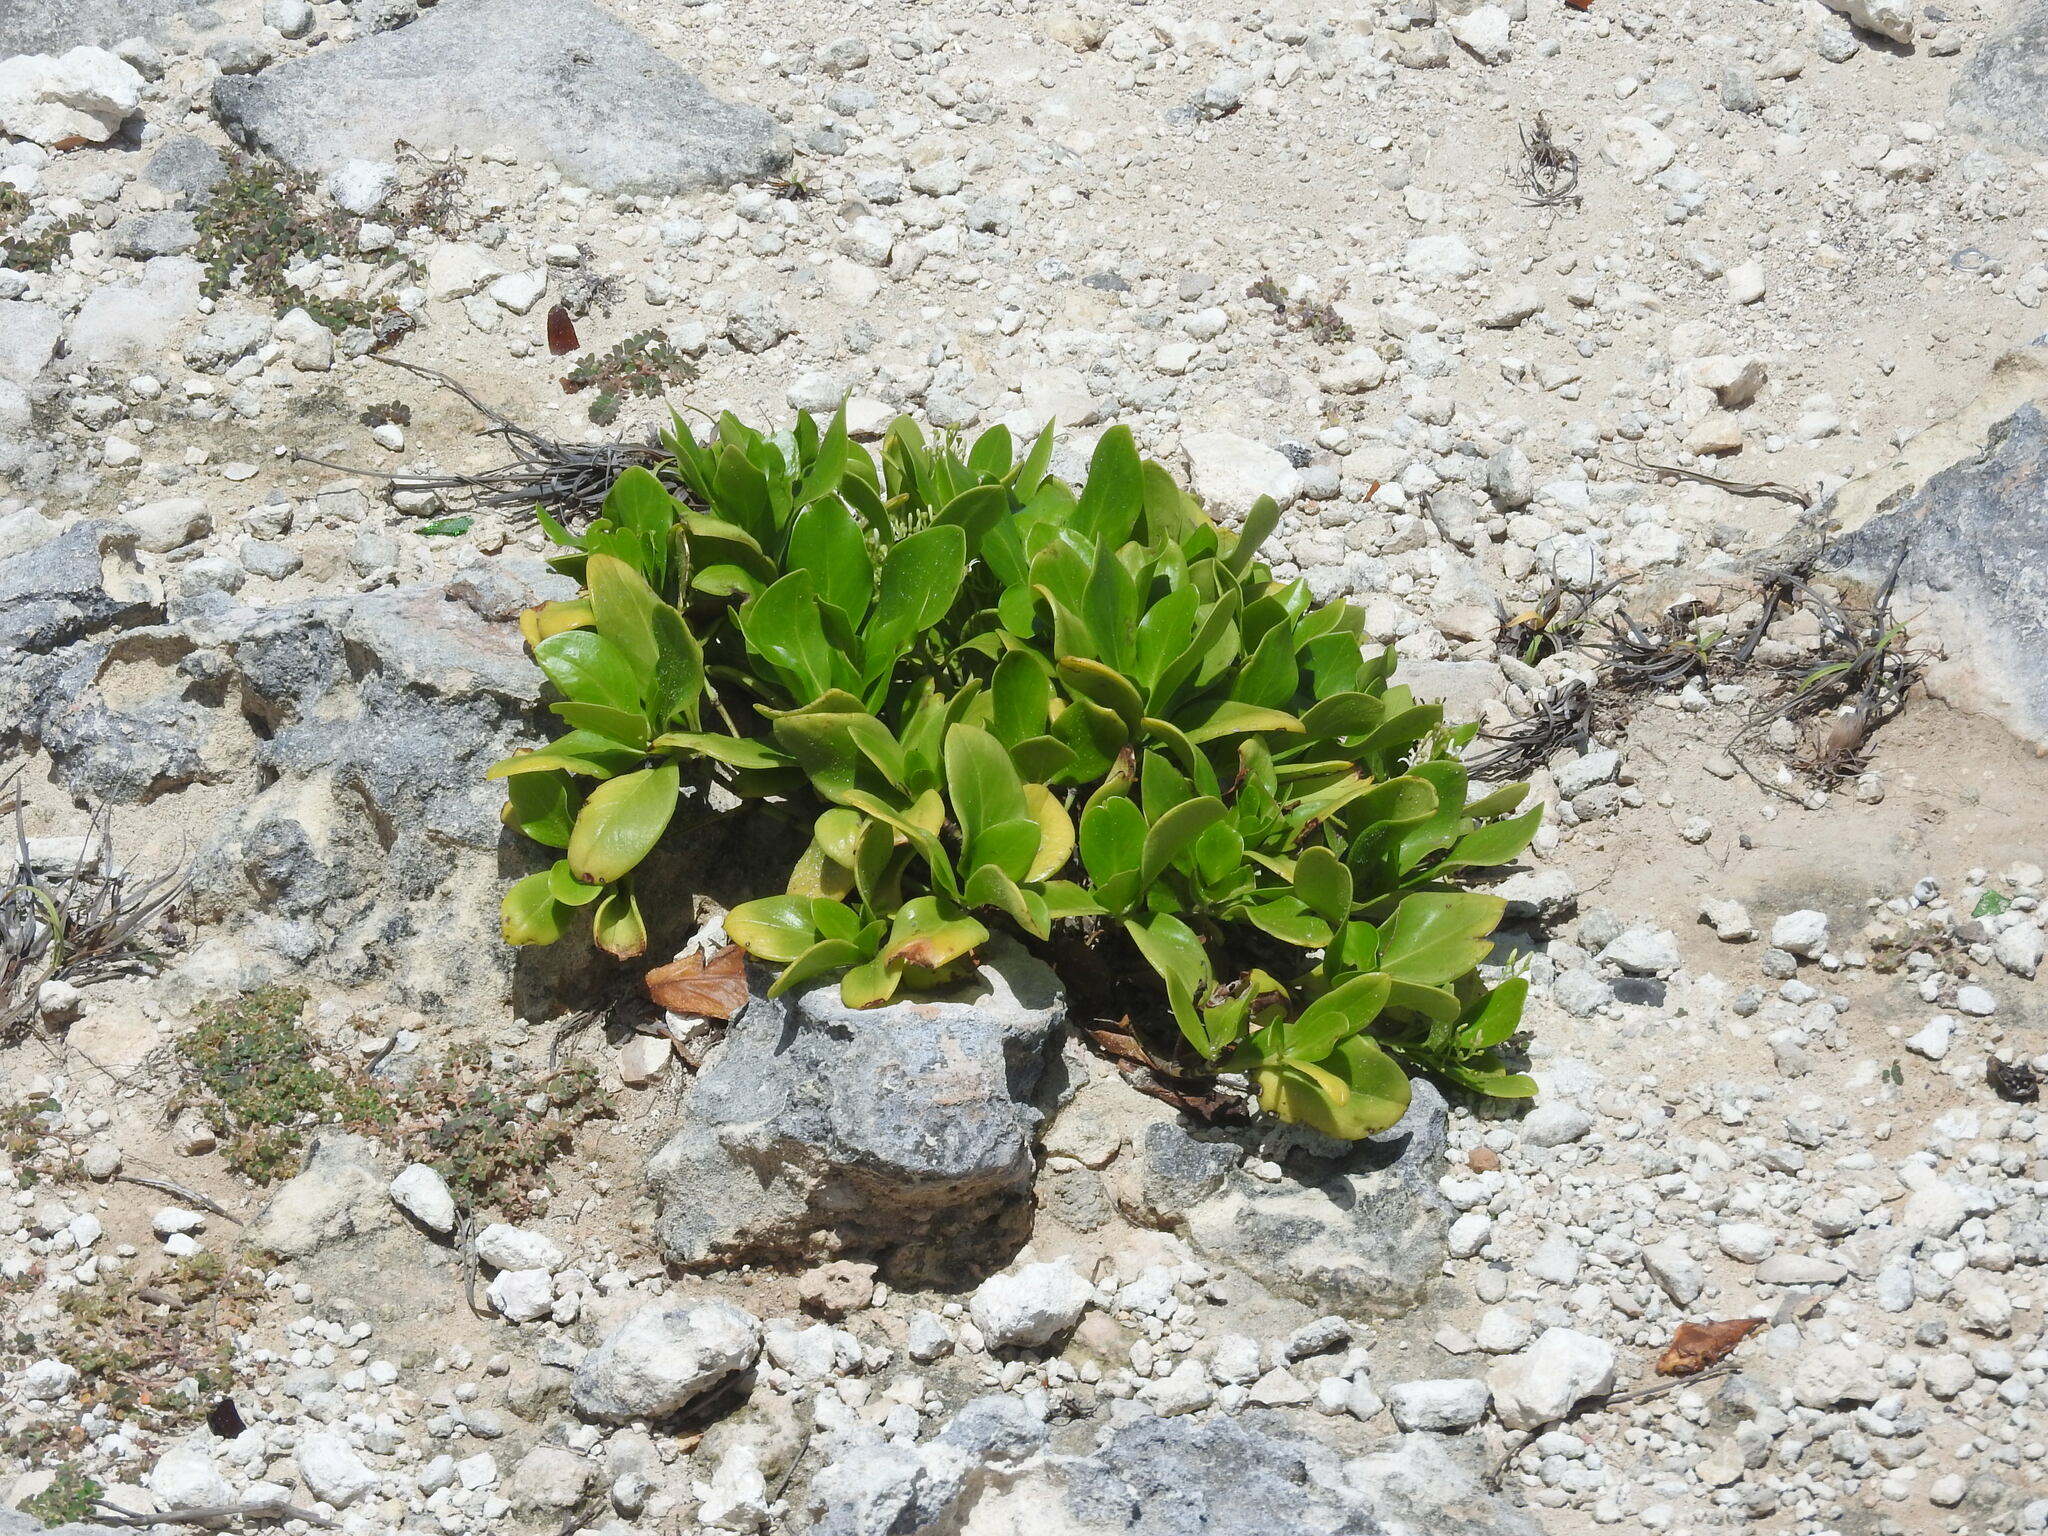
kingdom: Plantae
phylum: Tracheophyta
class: Magnoliopsida
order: Asterales
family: Goodeniaceae
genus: Scaevola
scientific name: Scaevola taccada
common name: Sea lettucetree
